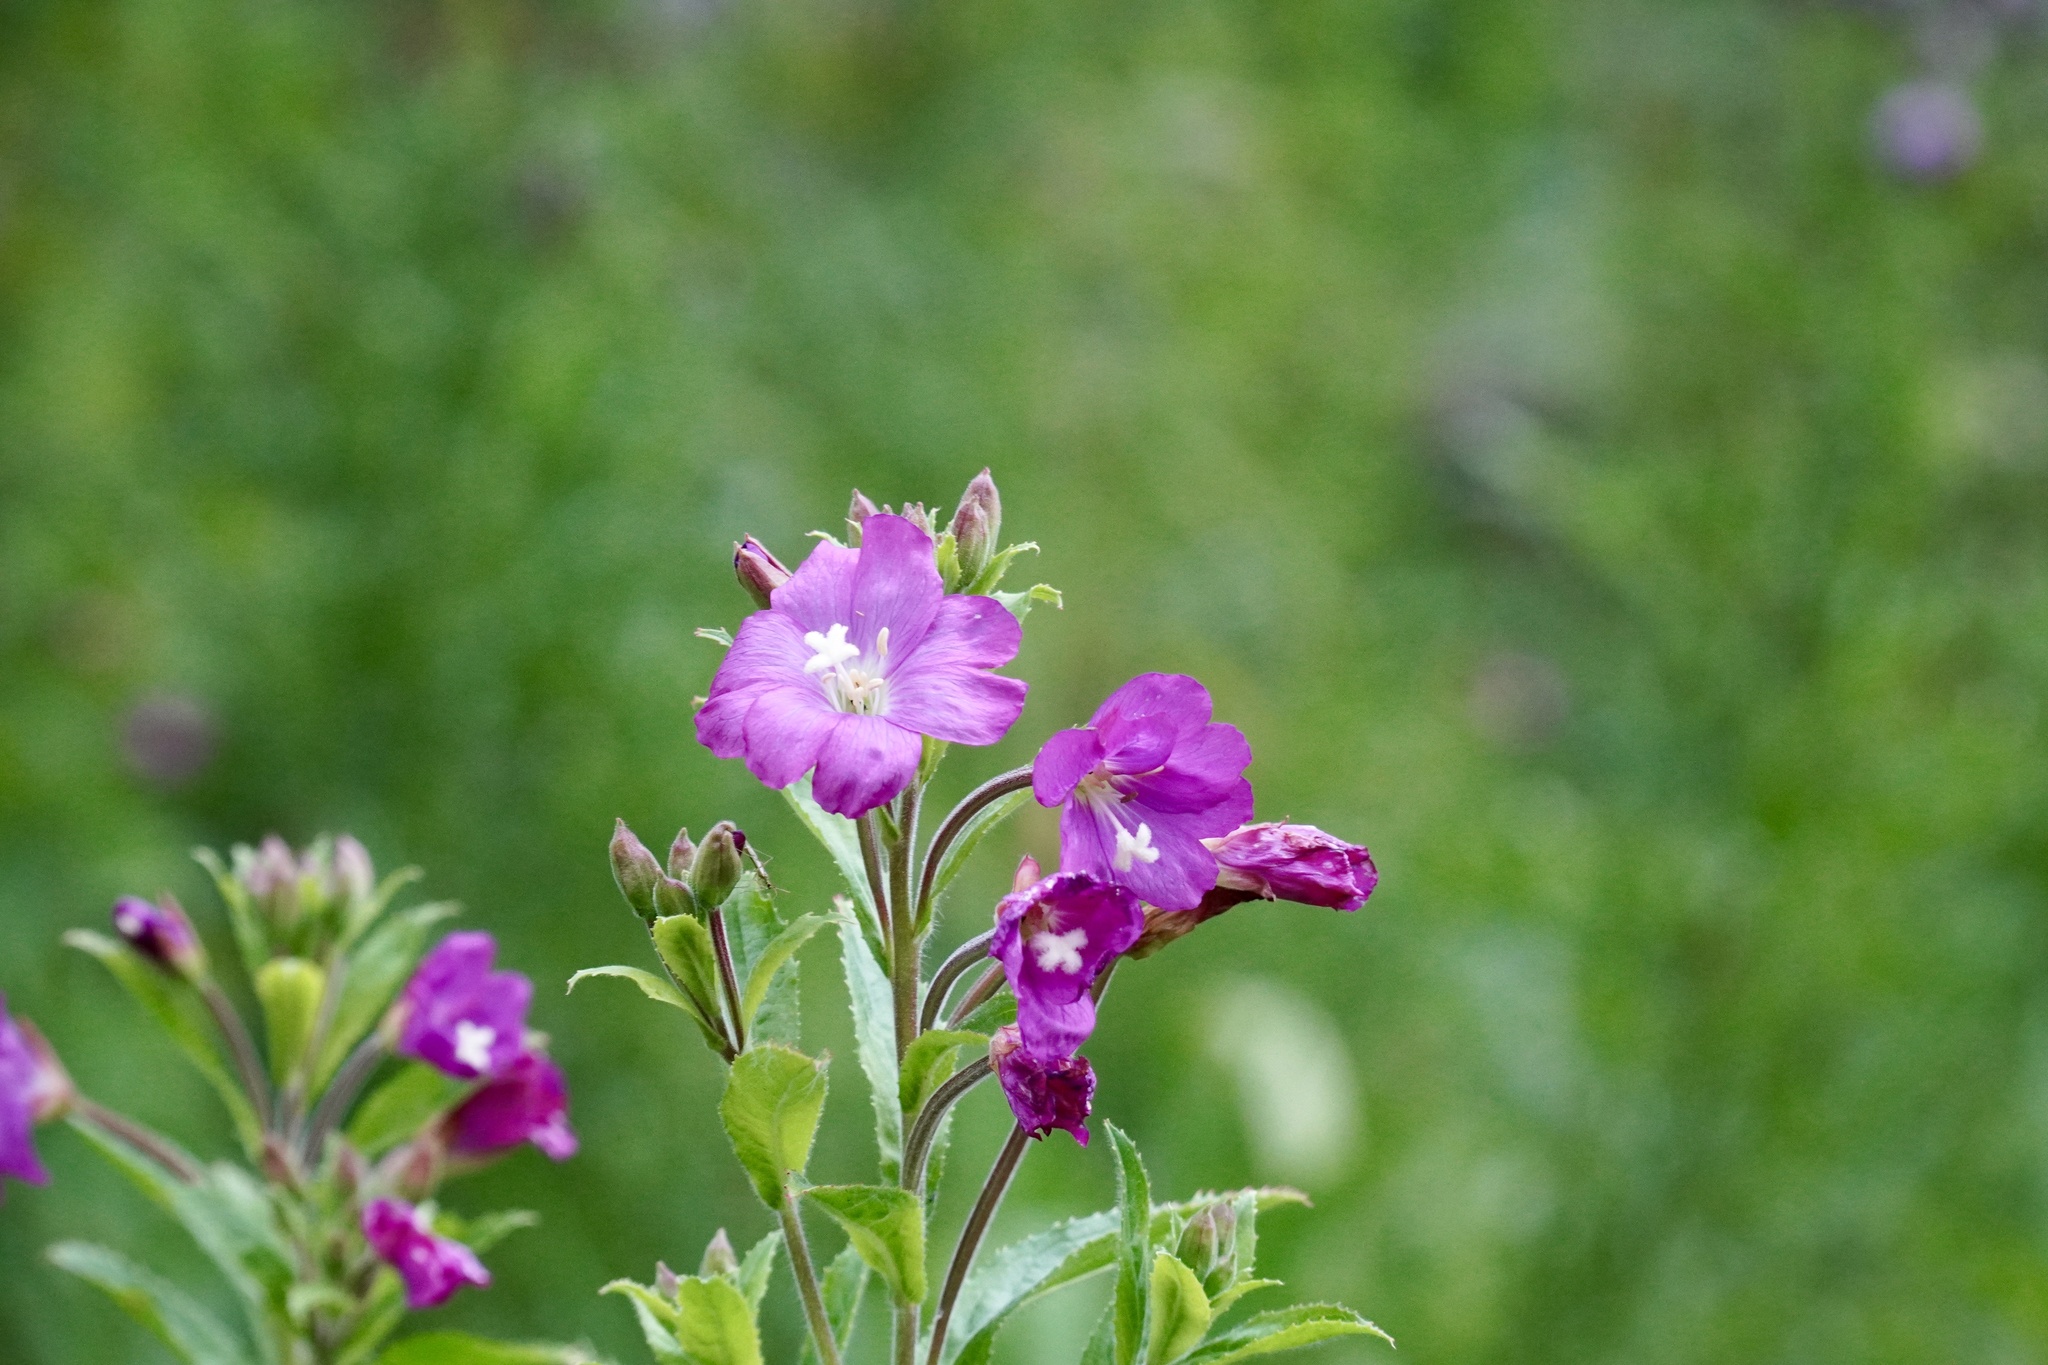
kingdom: Plantae
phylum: Tracheophyta
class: Magnoliopsida
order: Myrtales
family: Onagraceae
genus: Epilobium
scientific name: Epilobium hirsutum
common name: Great willowherb
